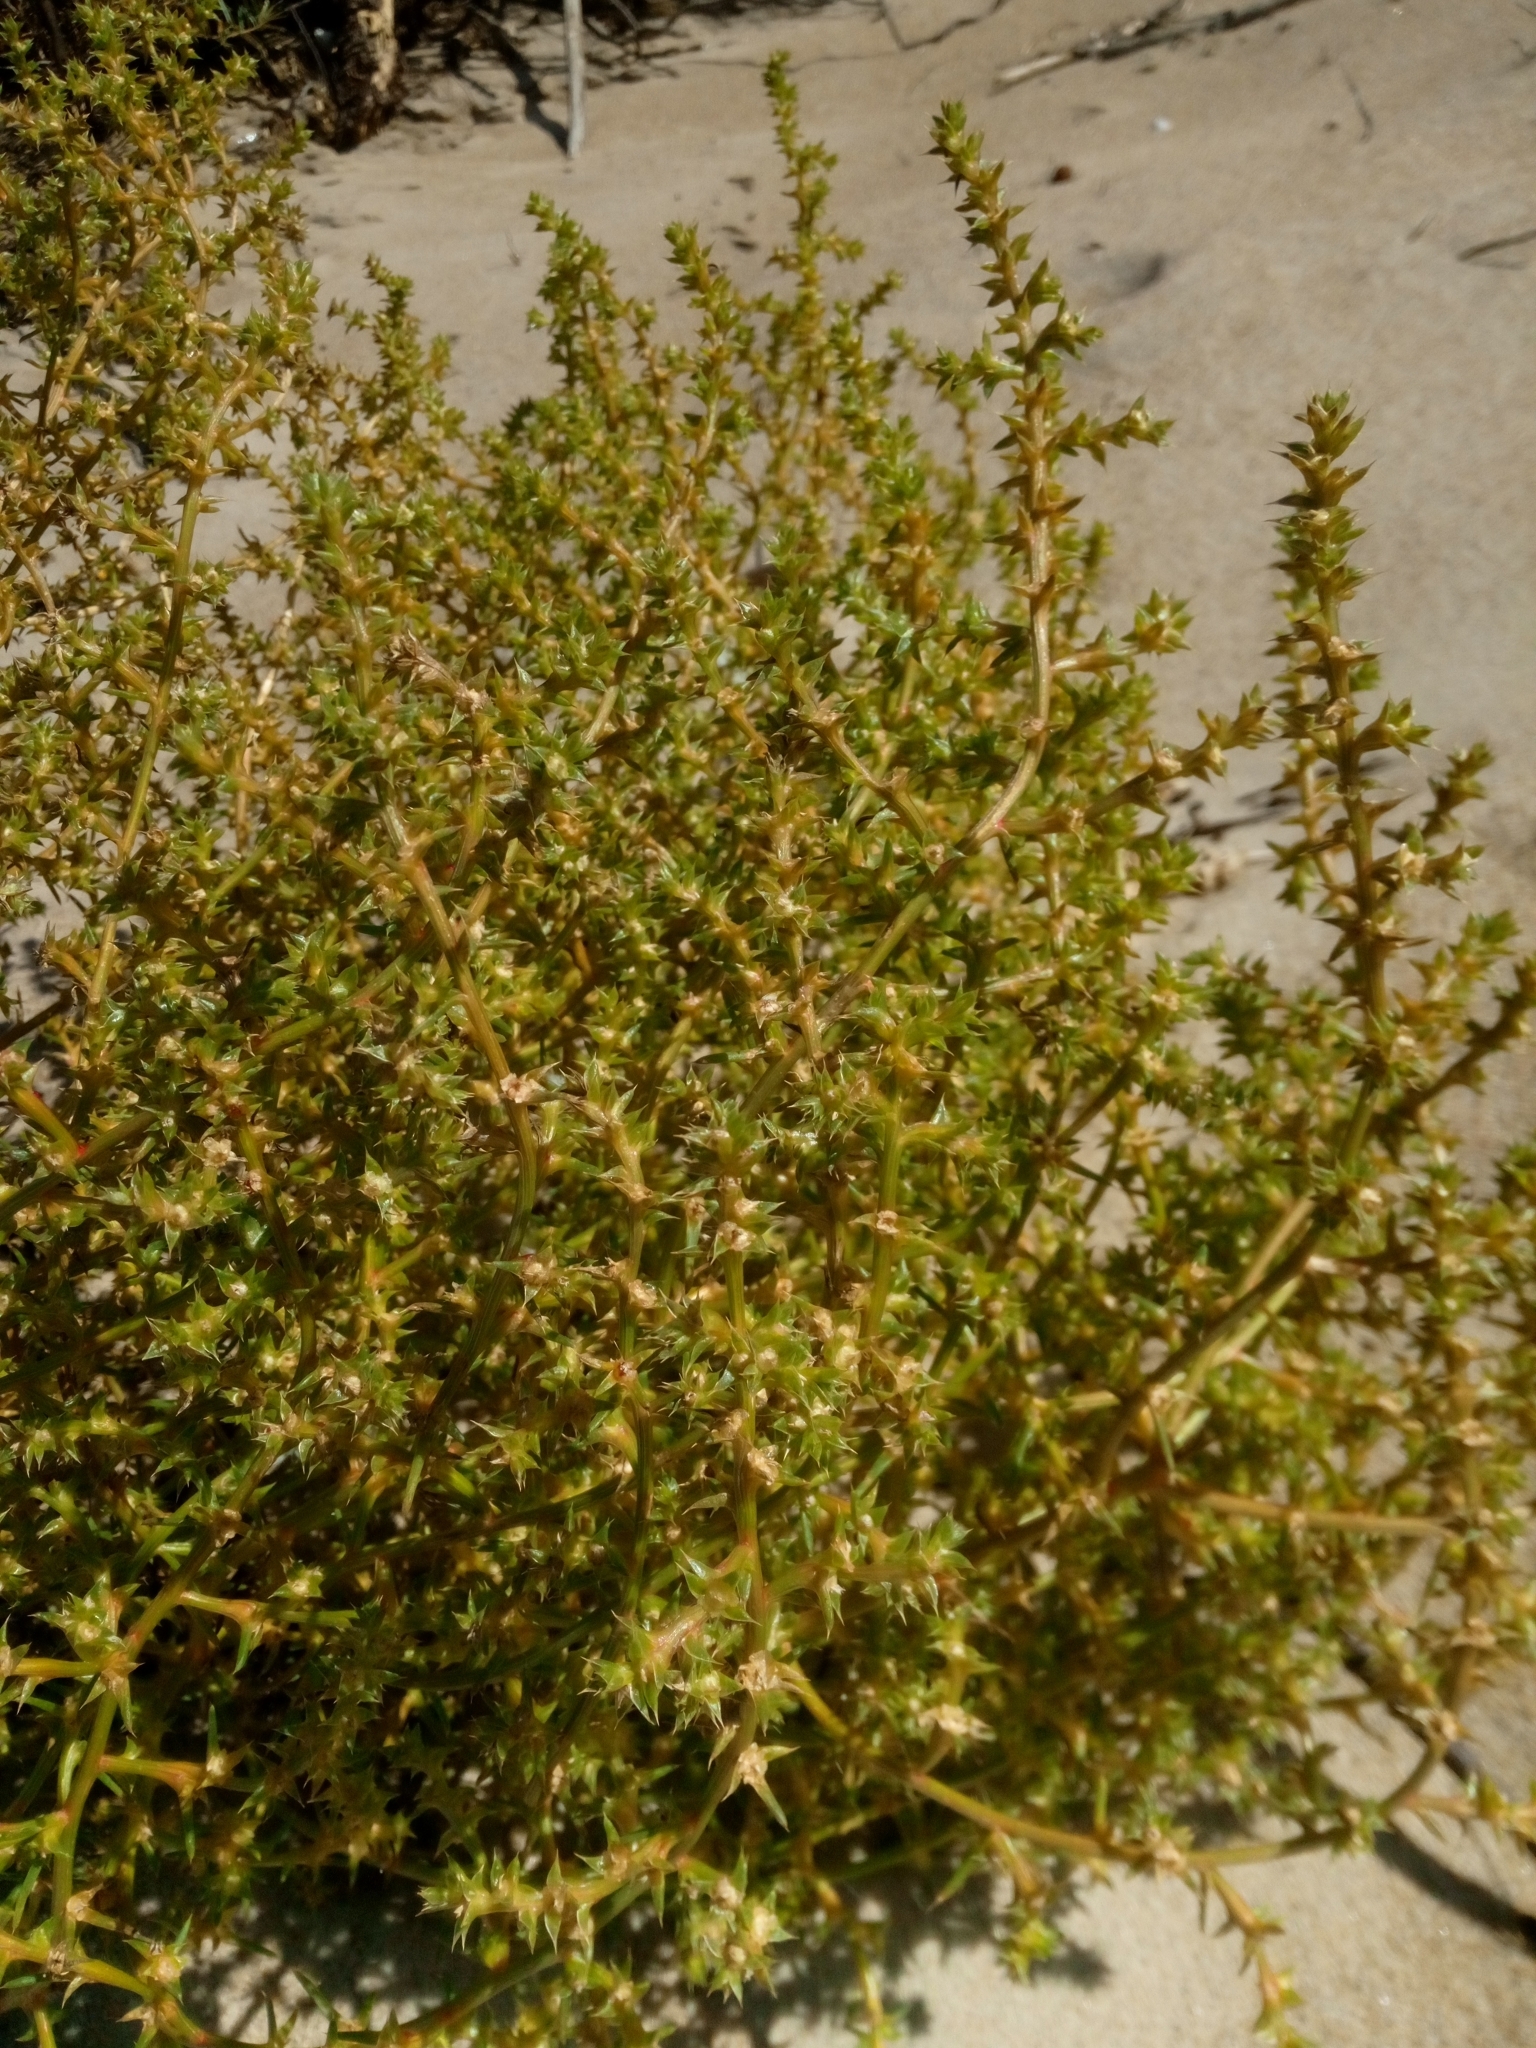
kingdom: Plantae
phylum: Tracheophyta
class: Magnoliopsida
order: Caryophyllales
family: Amaranthaceae
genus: Salsola
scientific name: Salsola kali
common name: Saltwort
